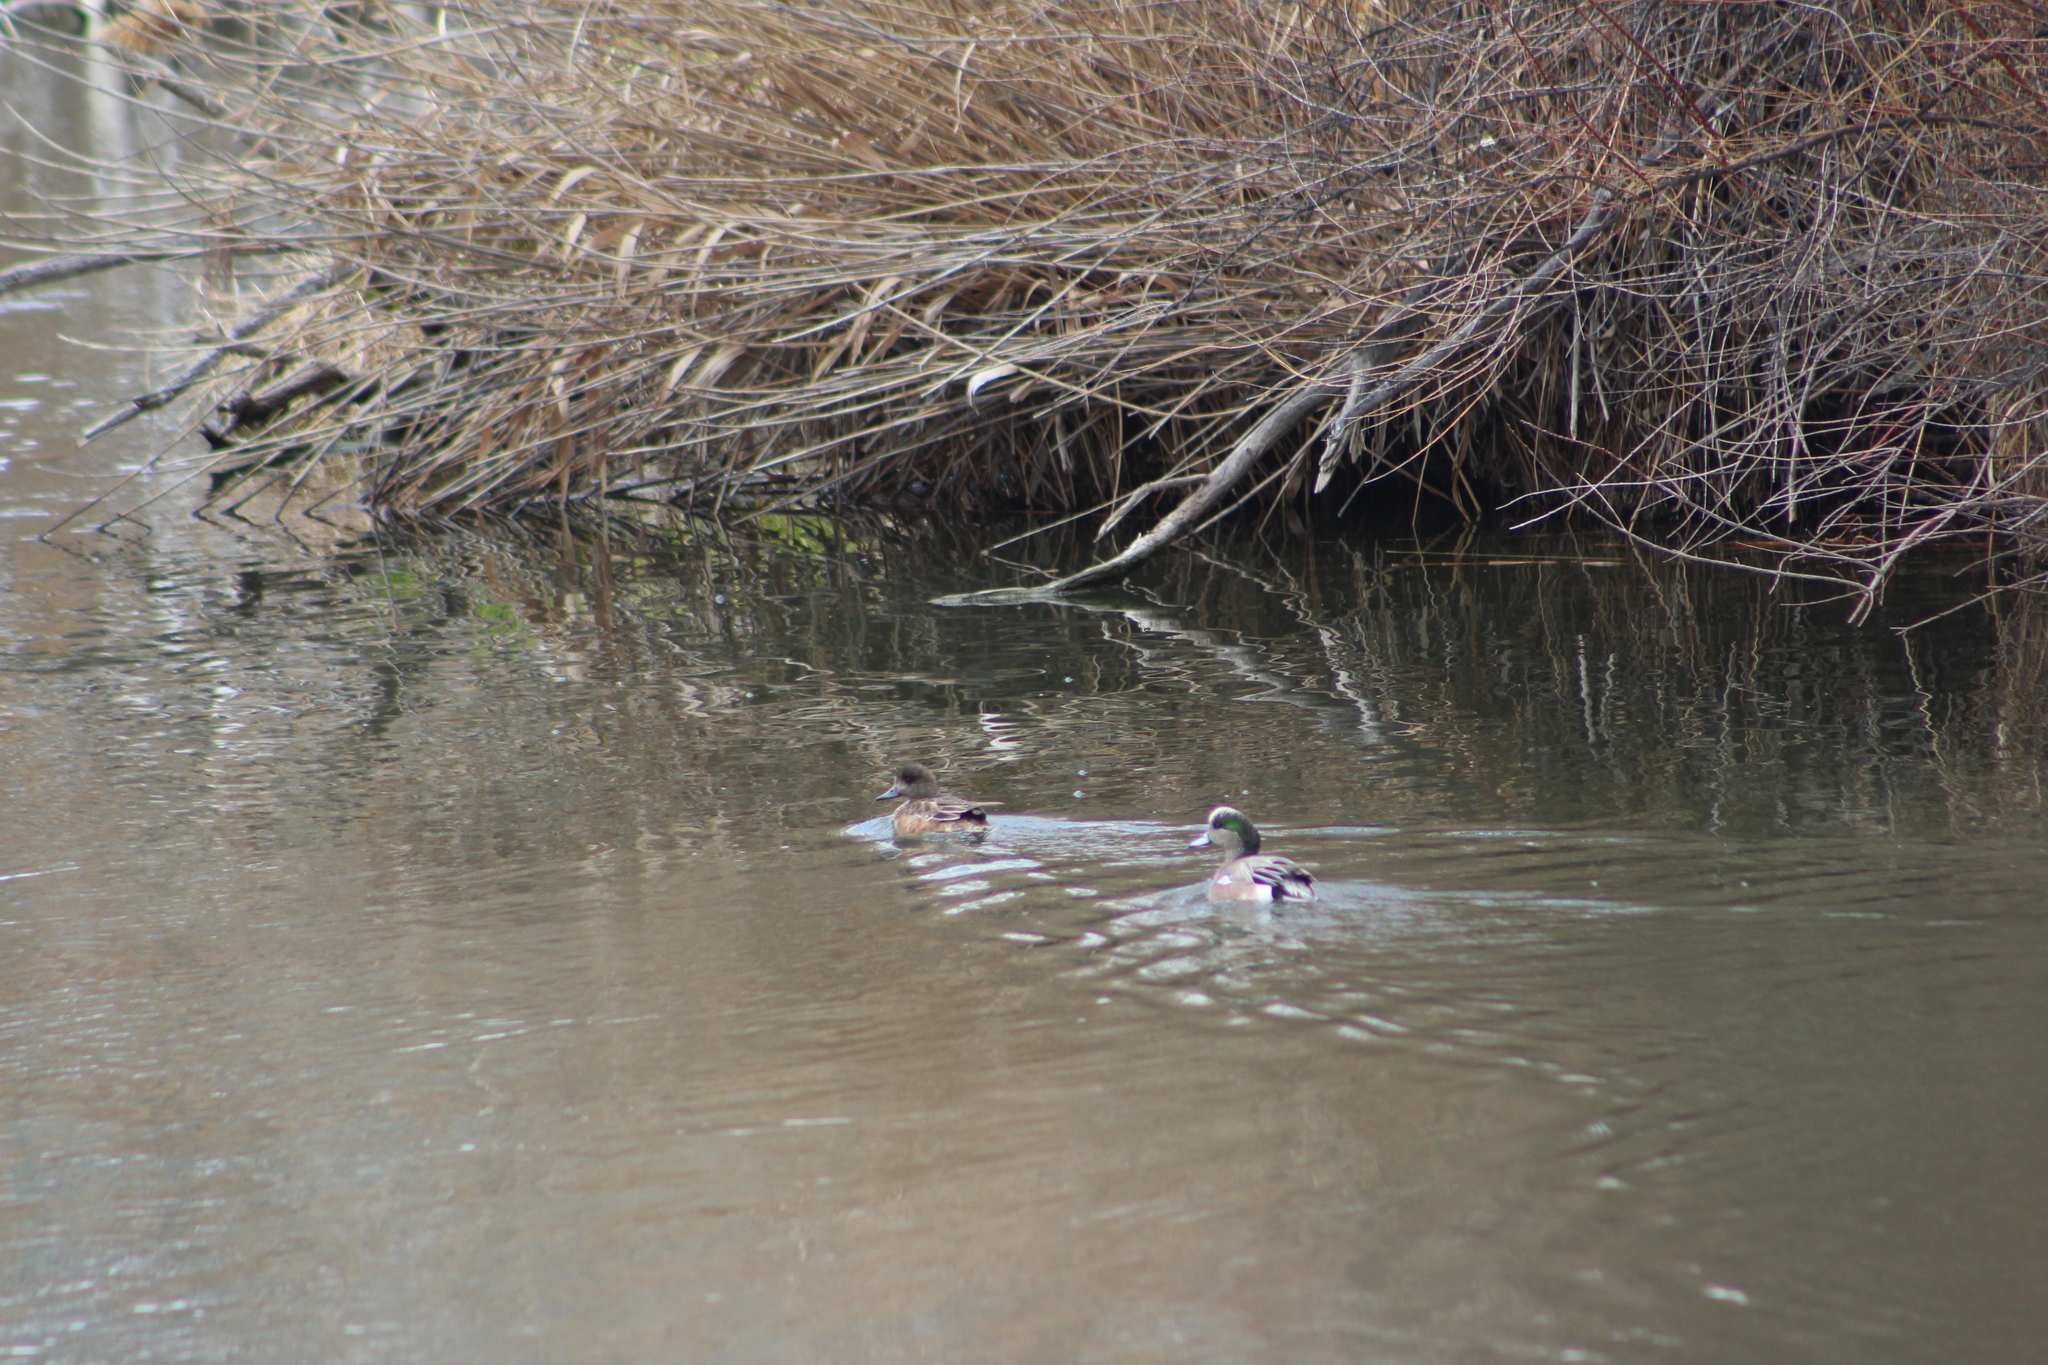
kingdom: Animalia
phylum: Chordata
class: Aves
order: Anseriformes
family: Anatidae
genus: Mareca
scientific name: Mareca americana
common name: American wigeon
